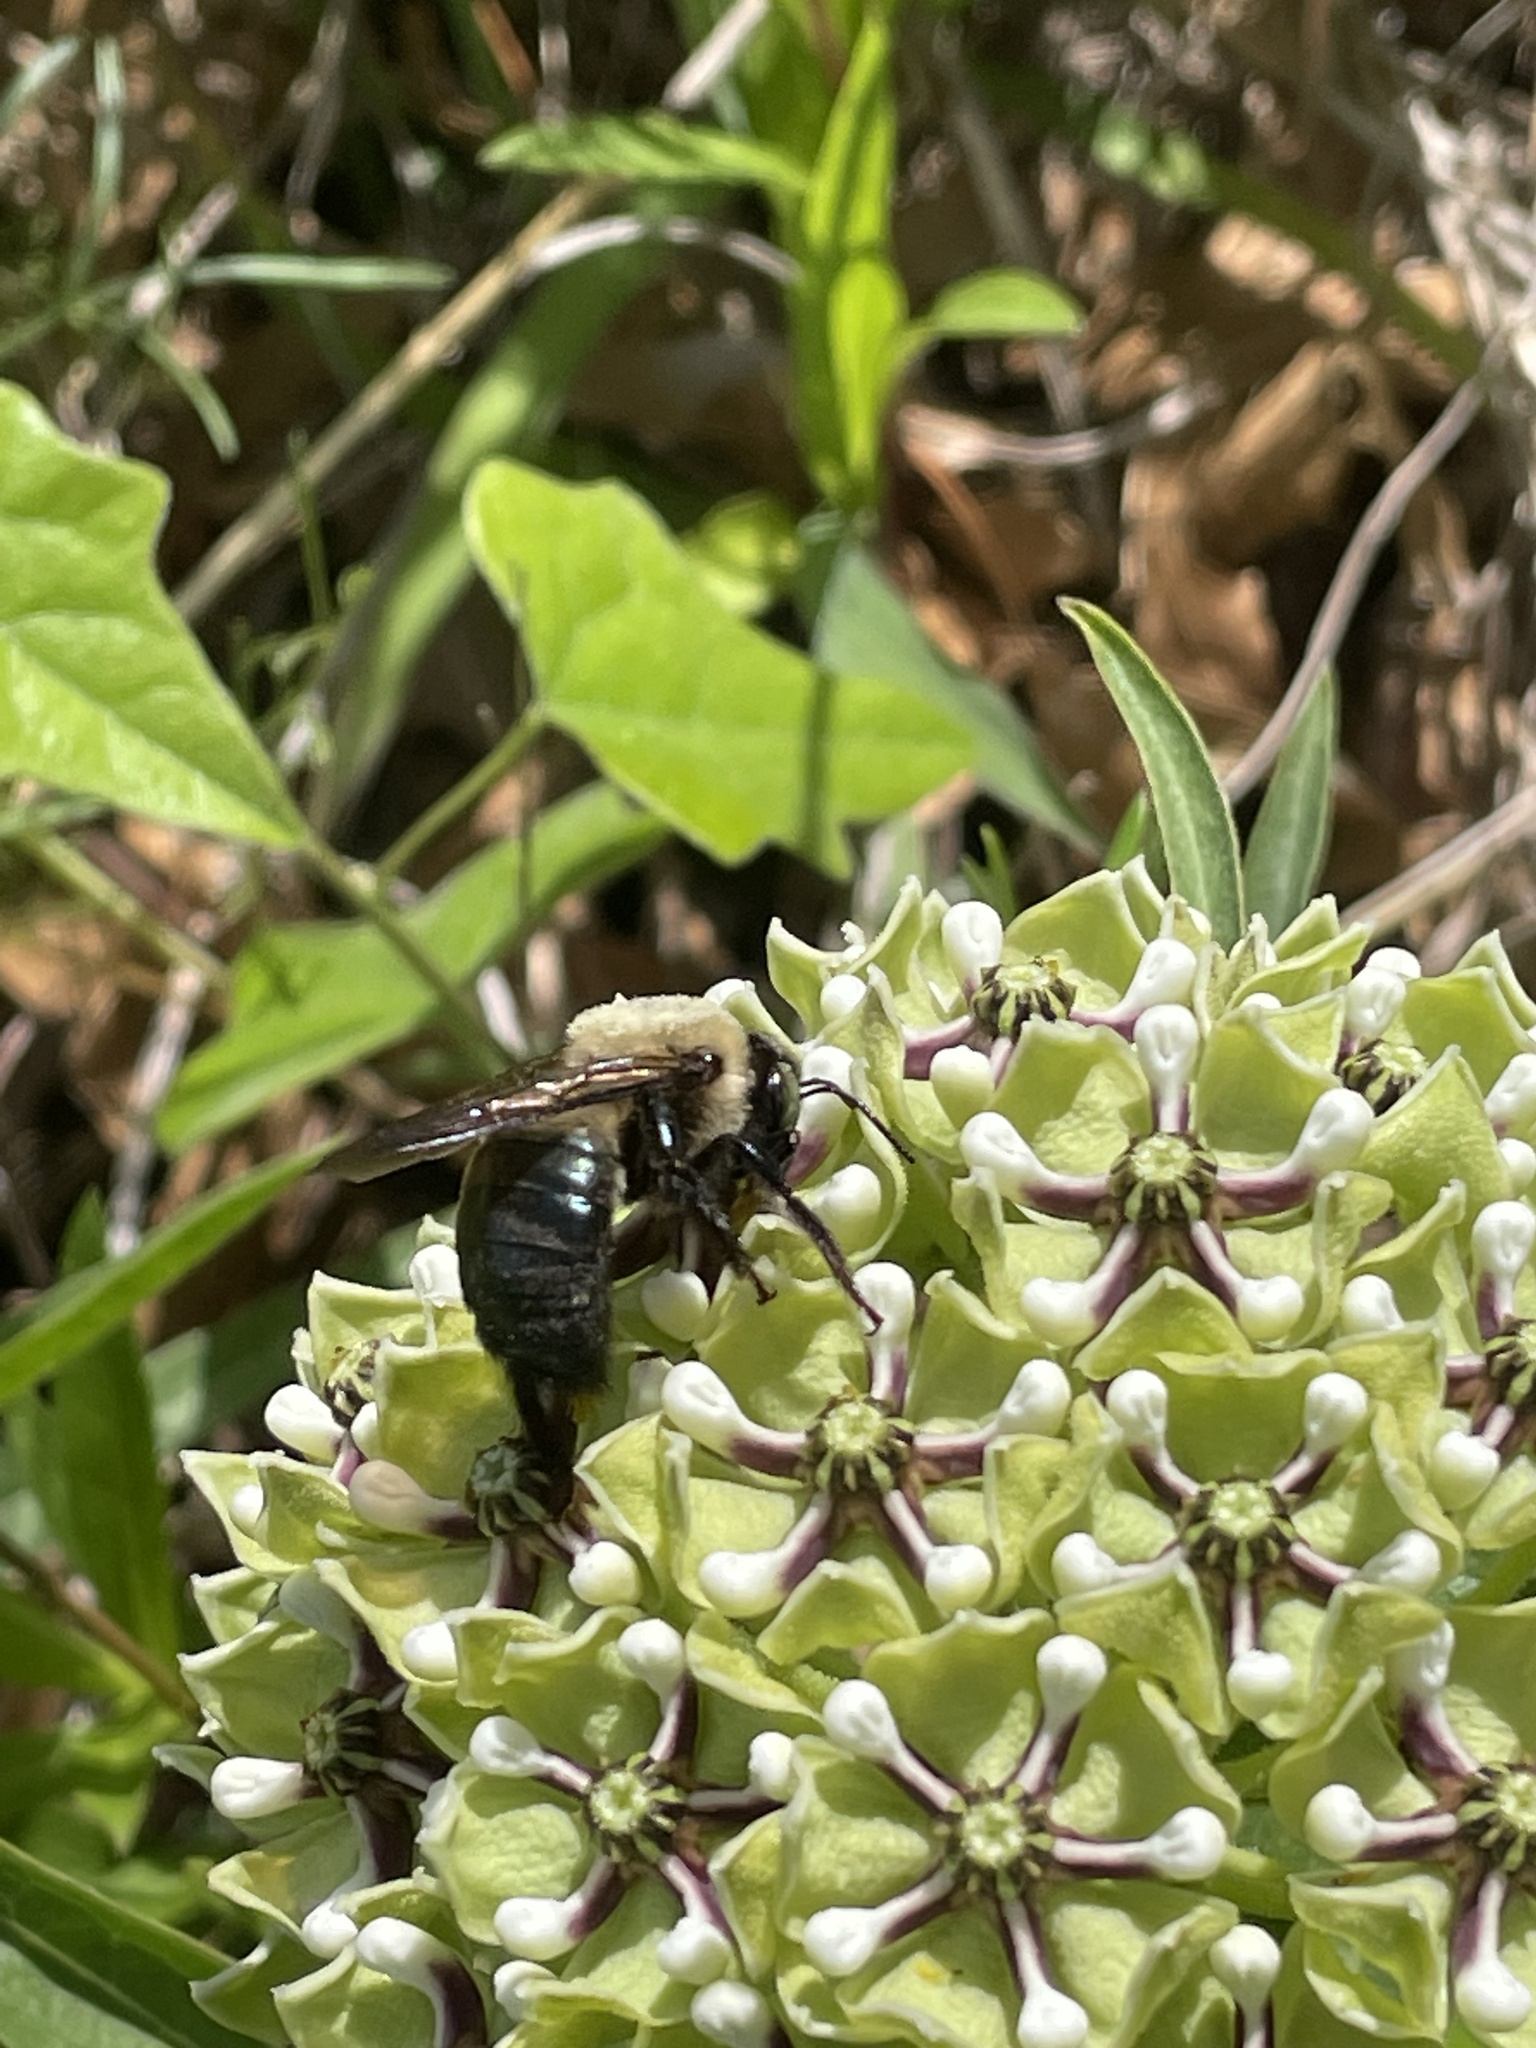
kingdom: Animalia
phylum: Arthropoda
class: Insecta
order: Hymenoptera
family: Apidae
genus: Xylocopa
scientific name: Xylocopa virginica
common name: Carpenter bee
